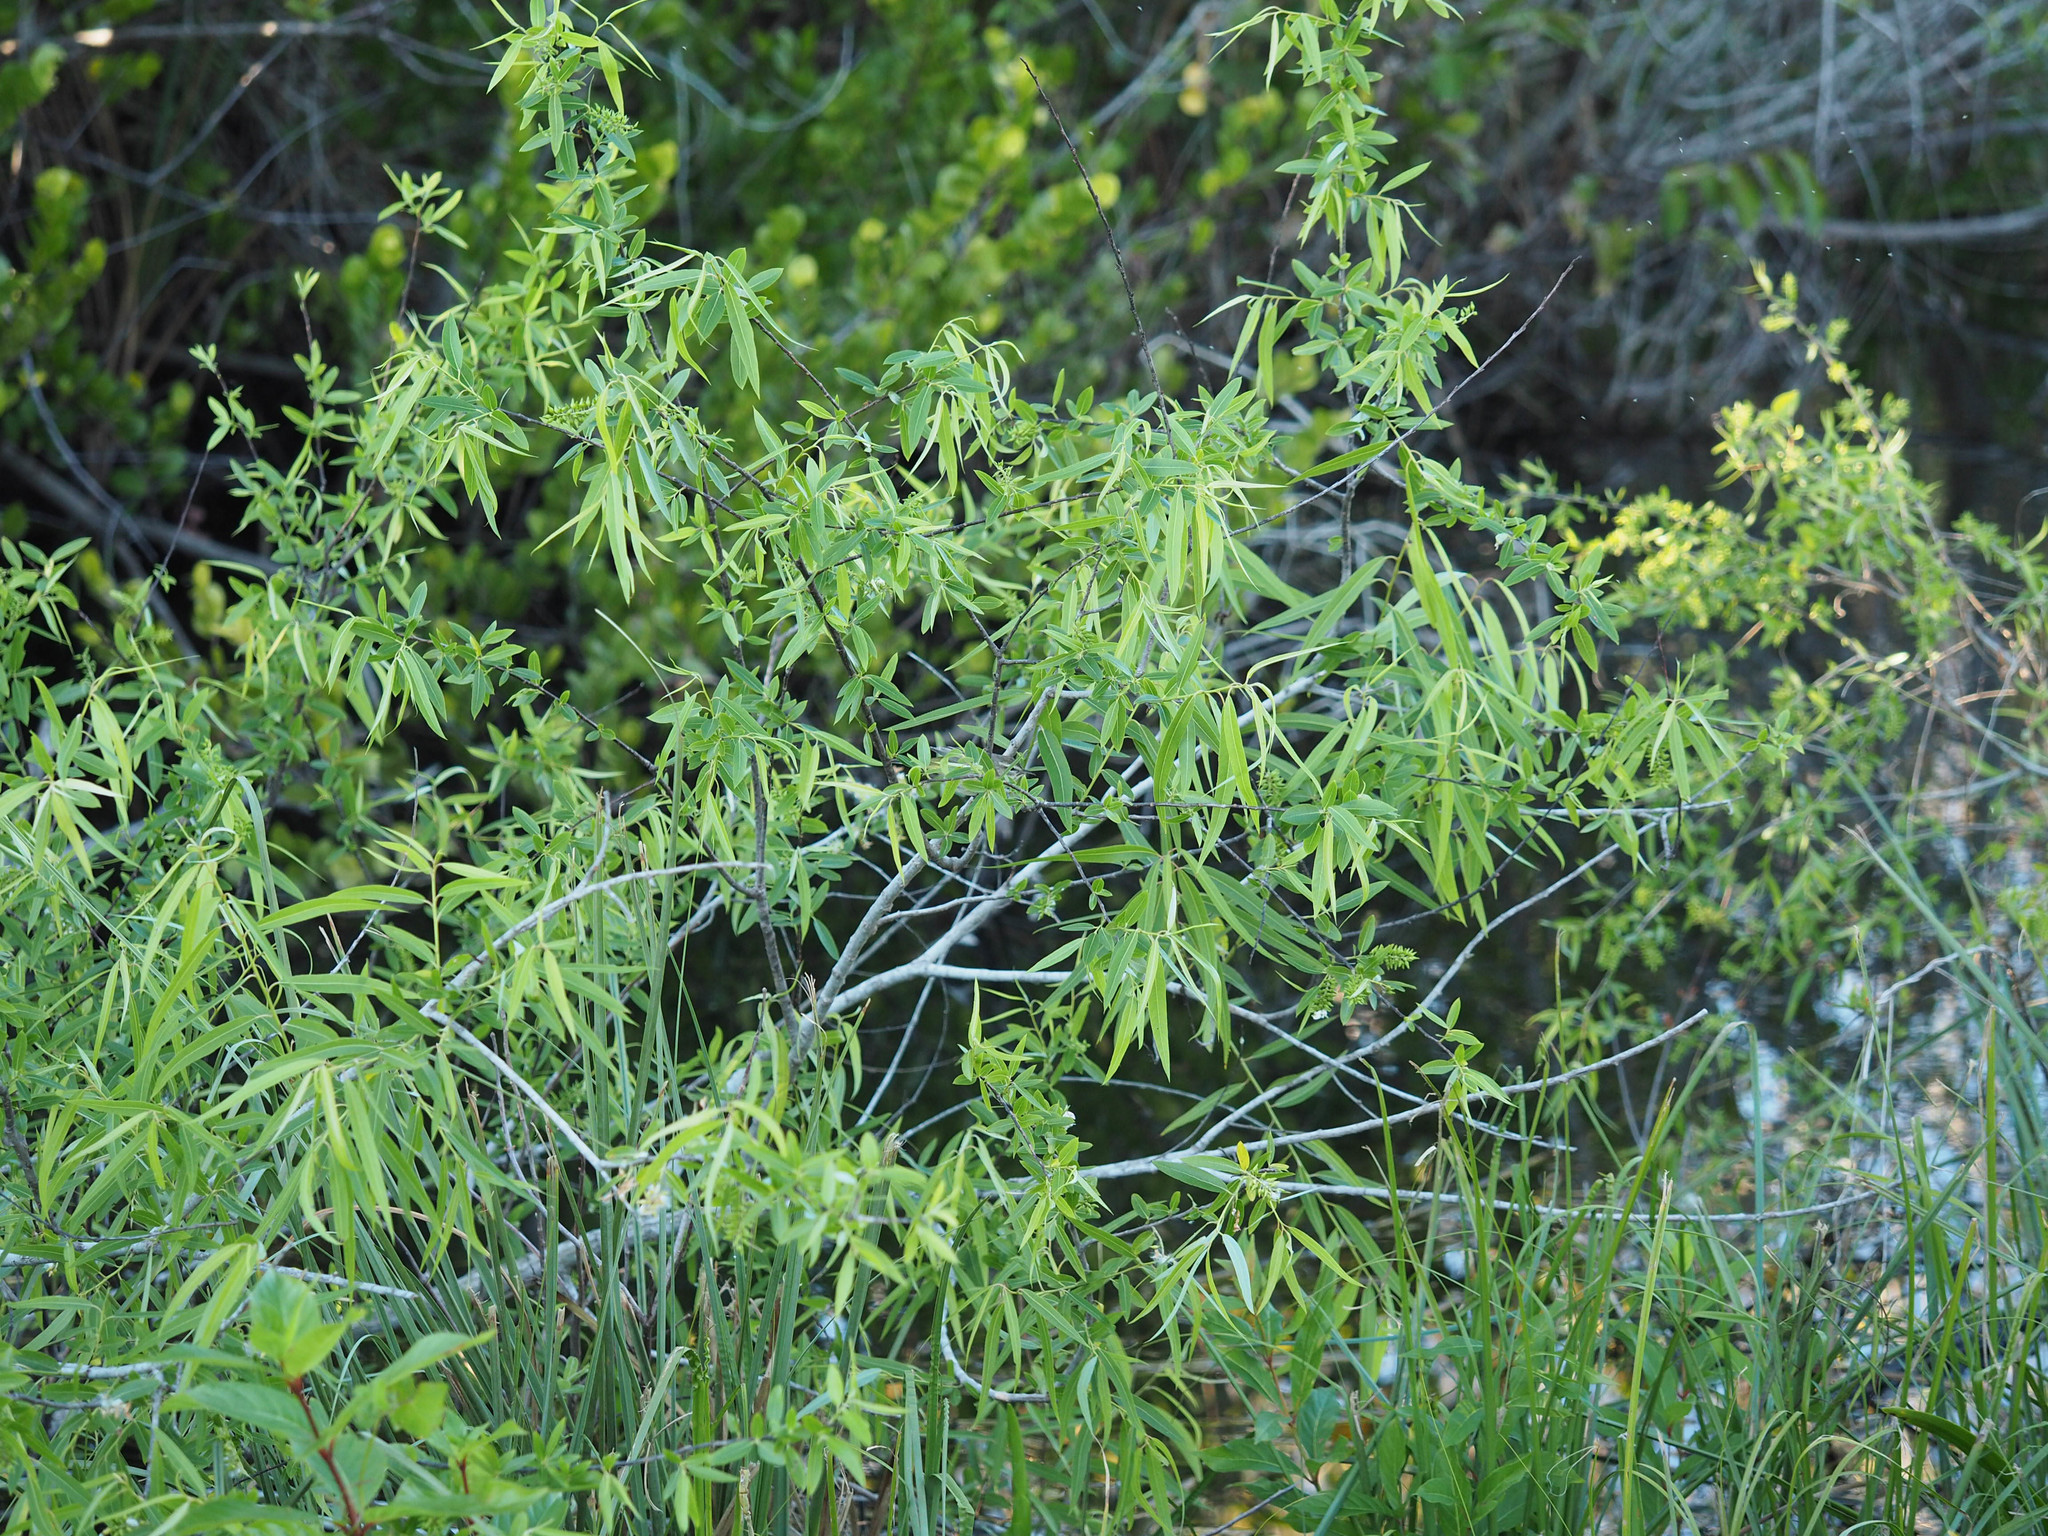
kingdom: Plantae
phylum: Tracheophyta
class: Magnoliopsida
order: Malpighiales
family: Salicaceae
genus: Salix
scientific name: Salix caroliniana
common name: Carolina willow
